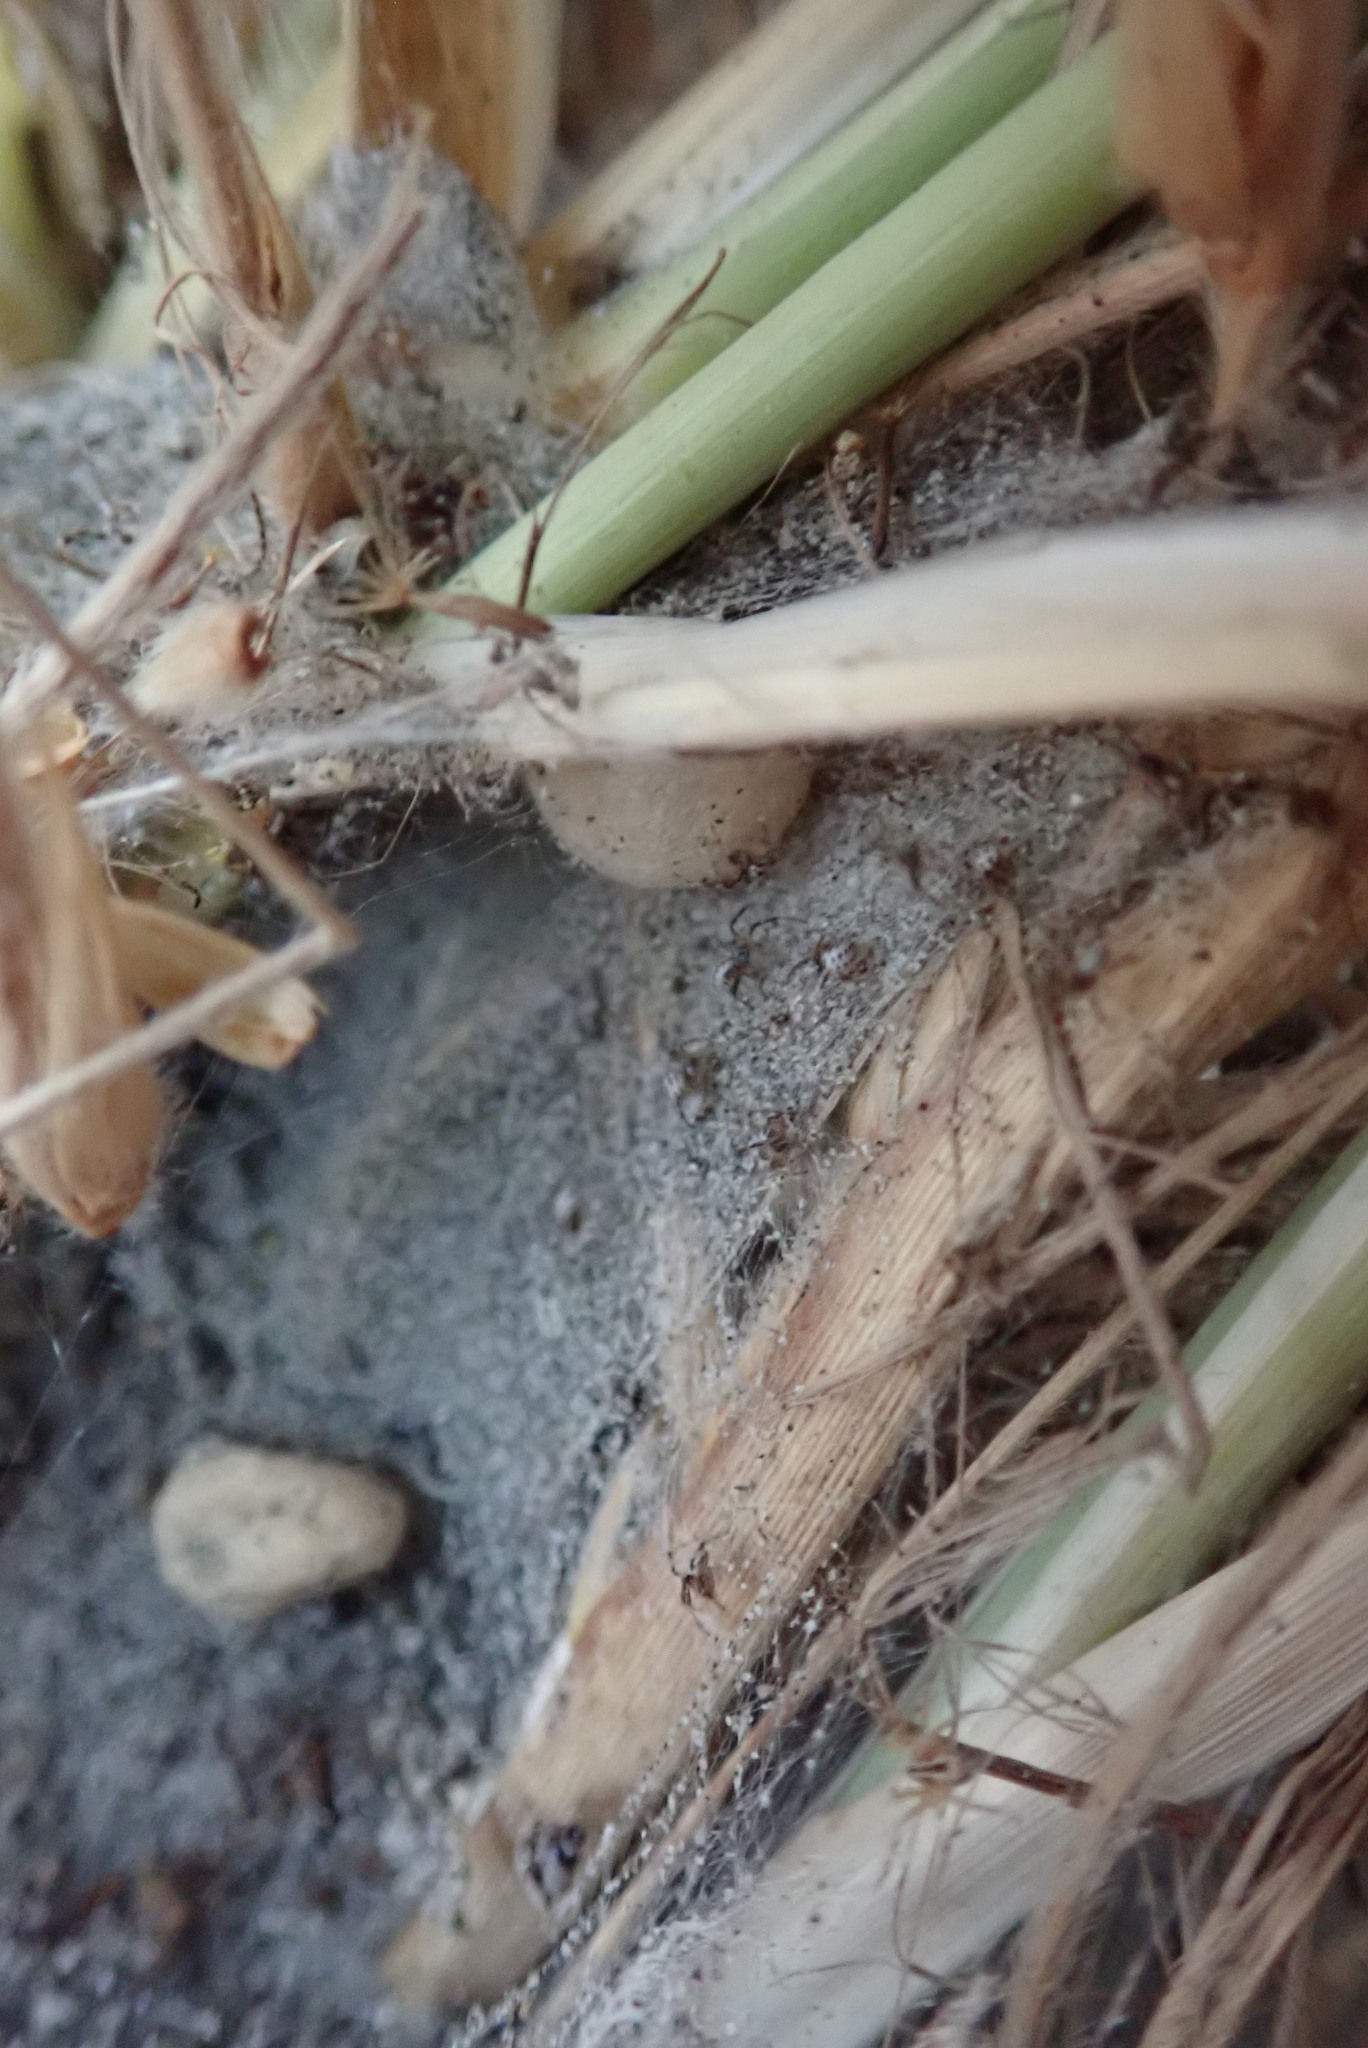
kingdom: Animalia
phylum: Arthropoda
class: Arachnida
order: Araneae
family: Theridiidae
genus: Latrodectus
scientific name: Latrodectus katipo
